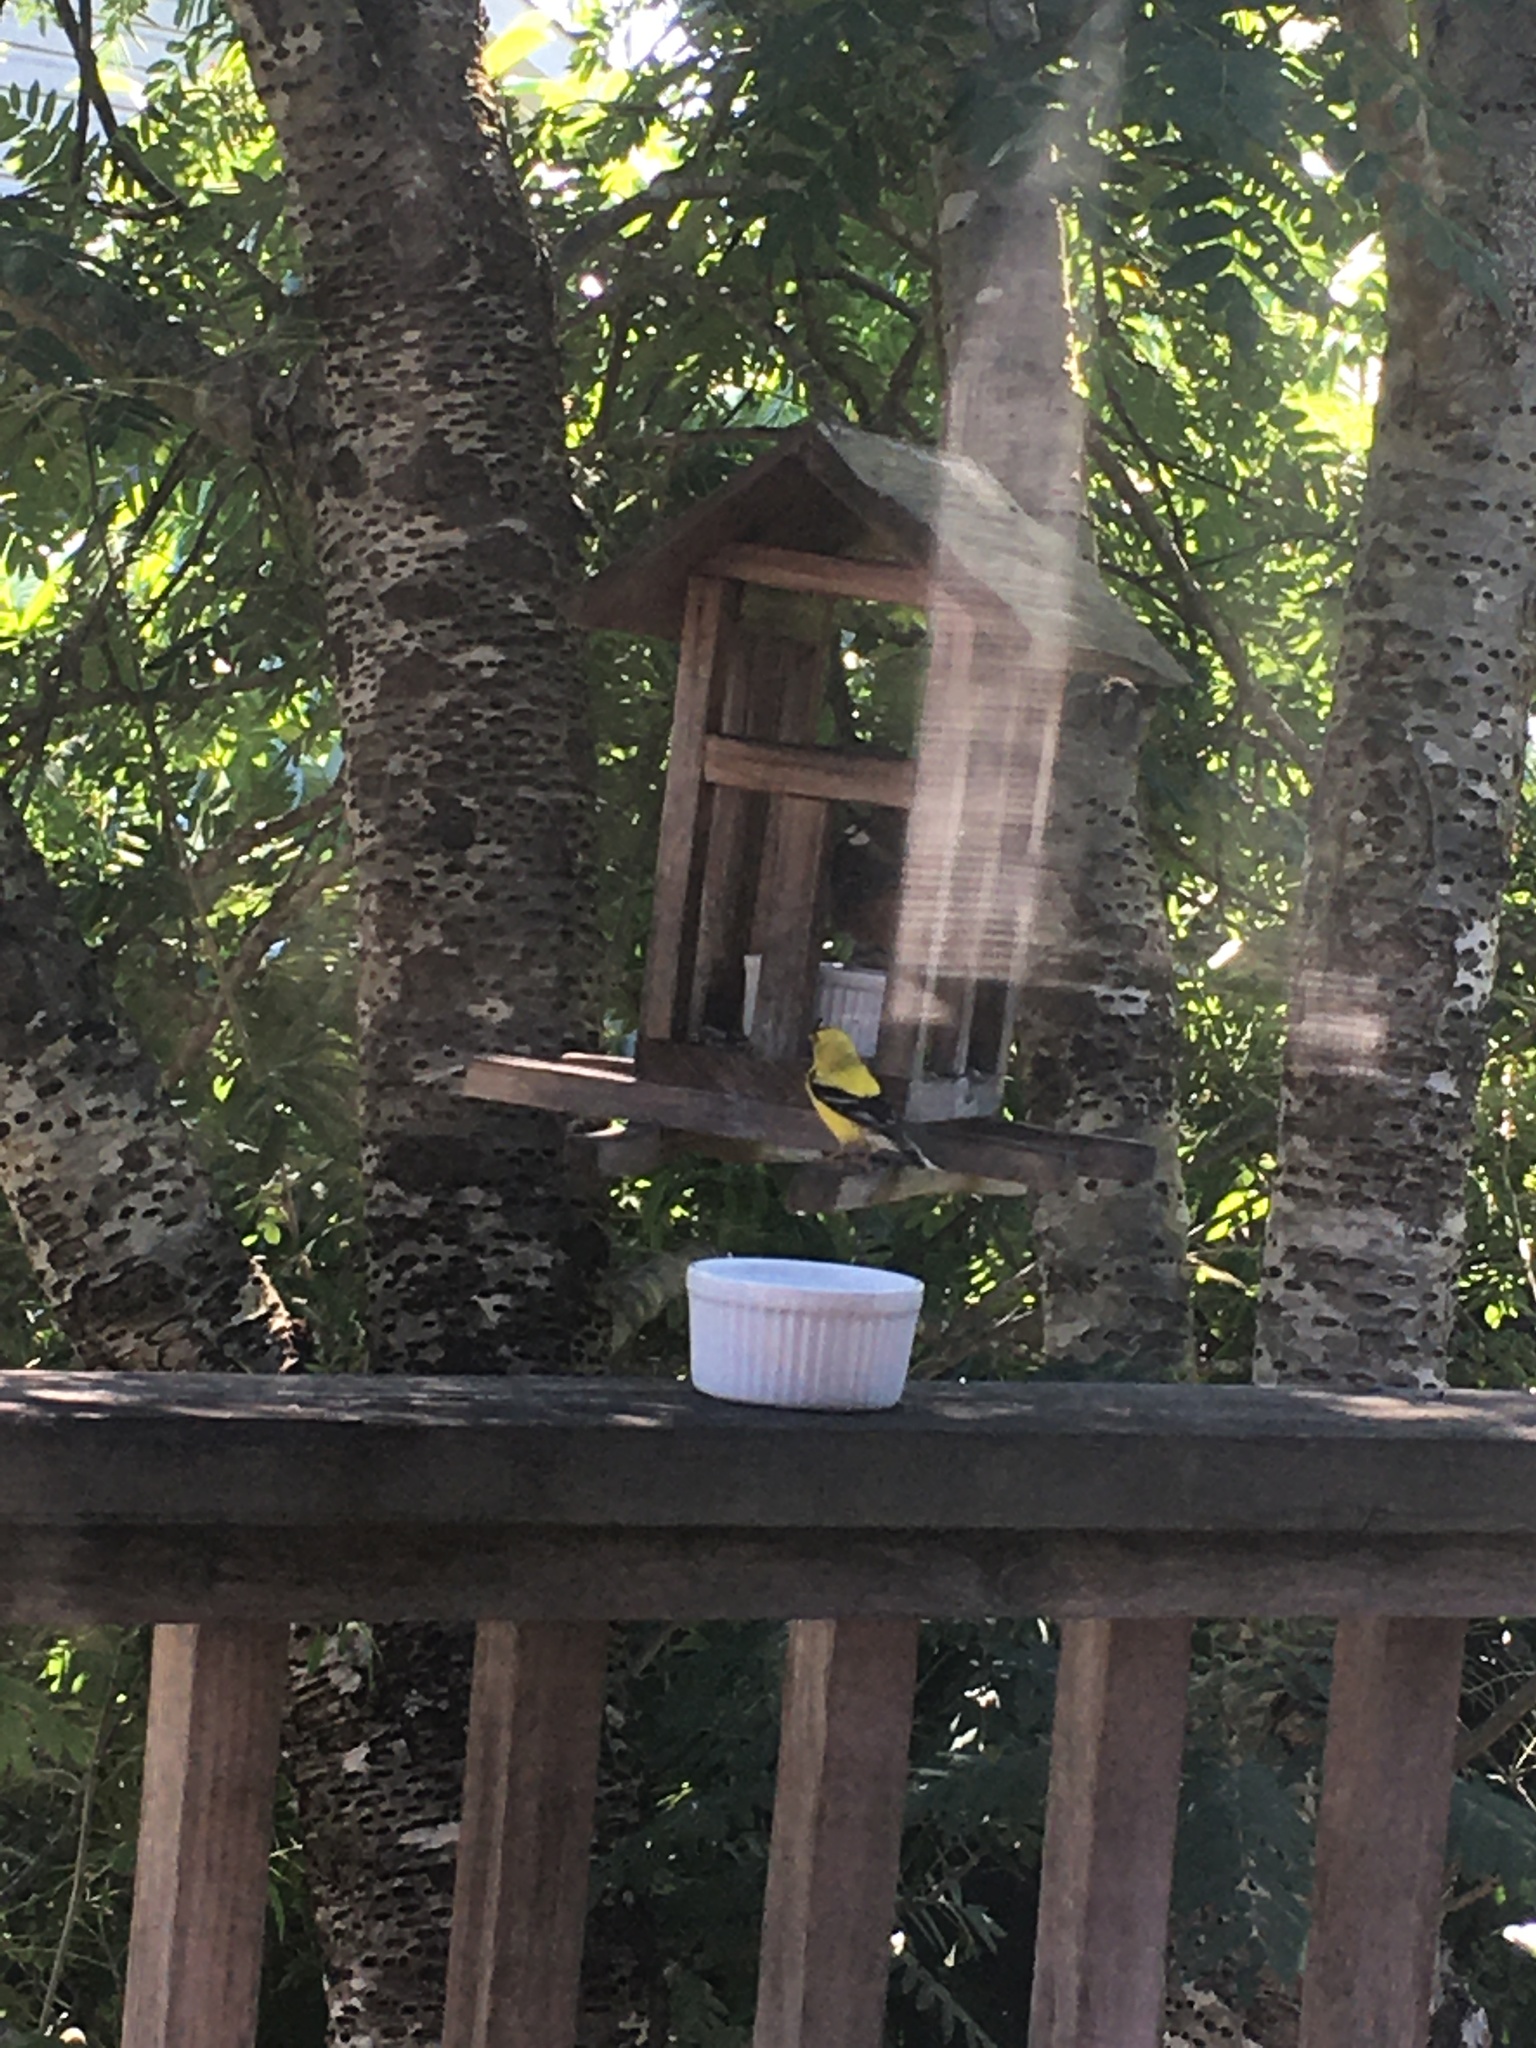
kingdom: Animalia
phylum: Chordata
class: Aves
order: Passeriformes
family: Fringillidae
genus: Spinus
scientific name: Spinus tristis
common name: American goldfinch
